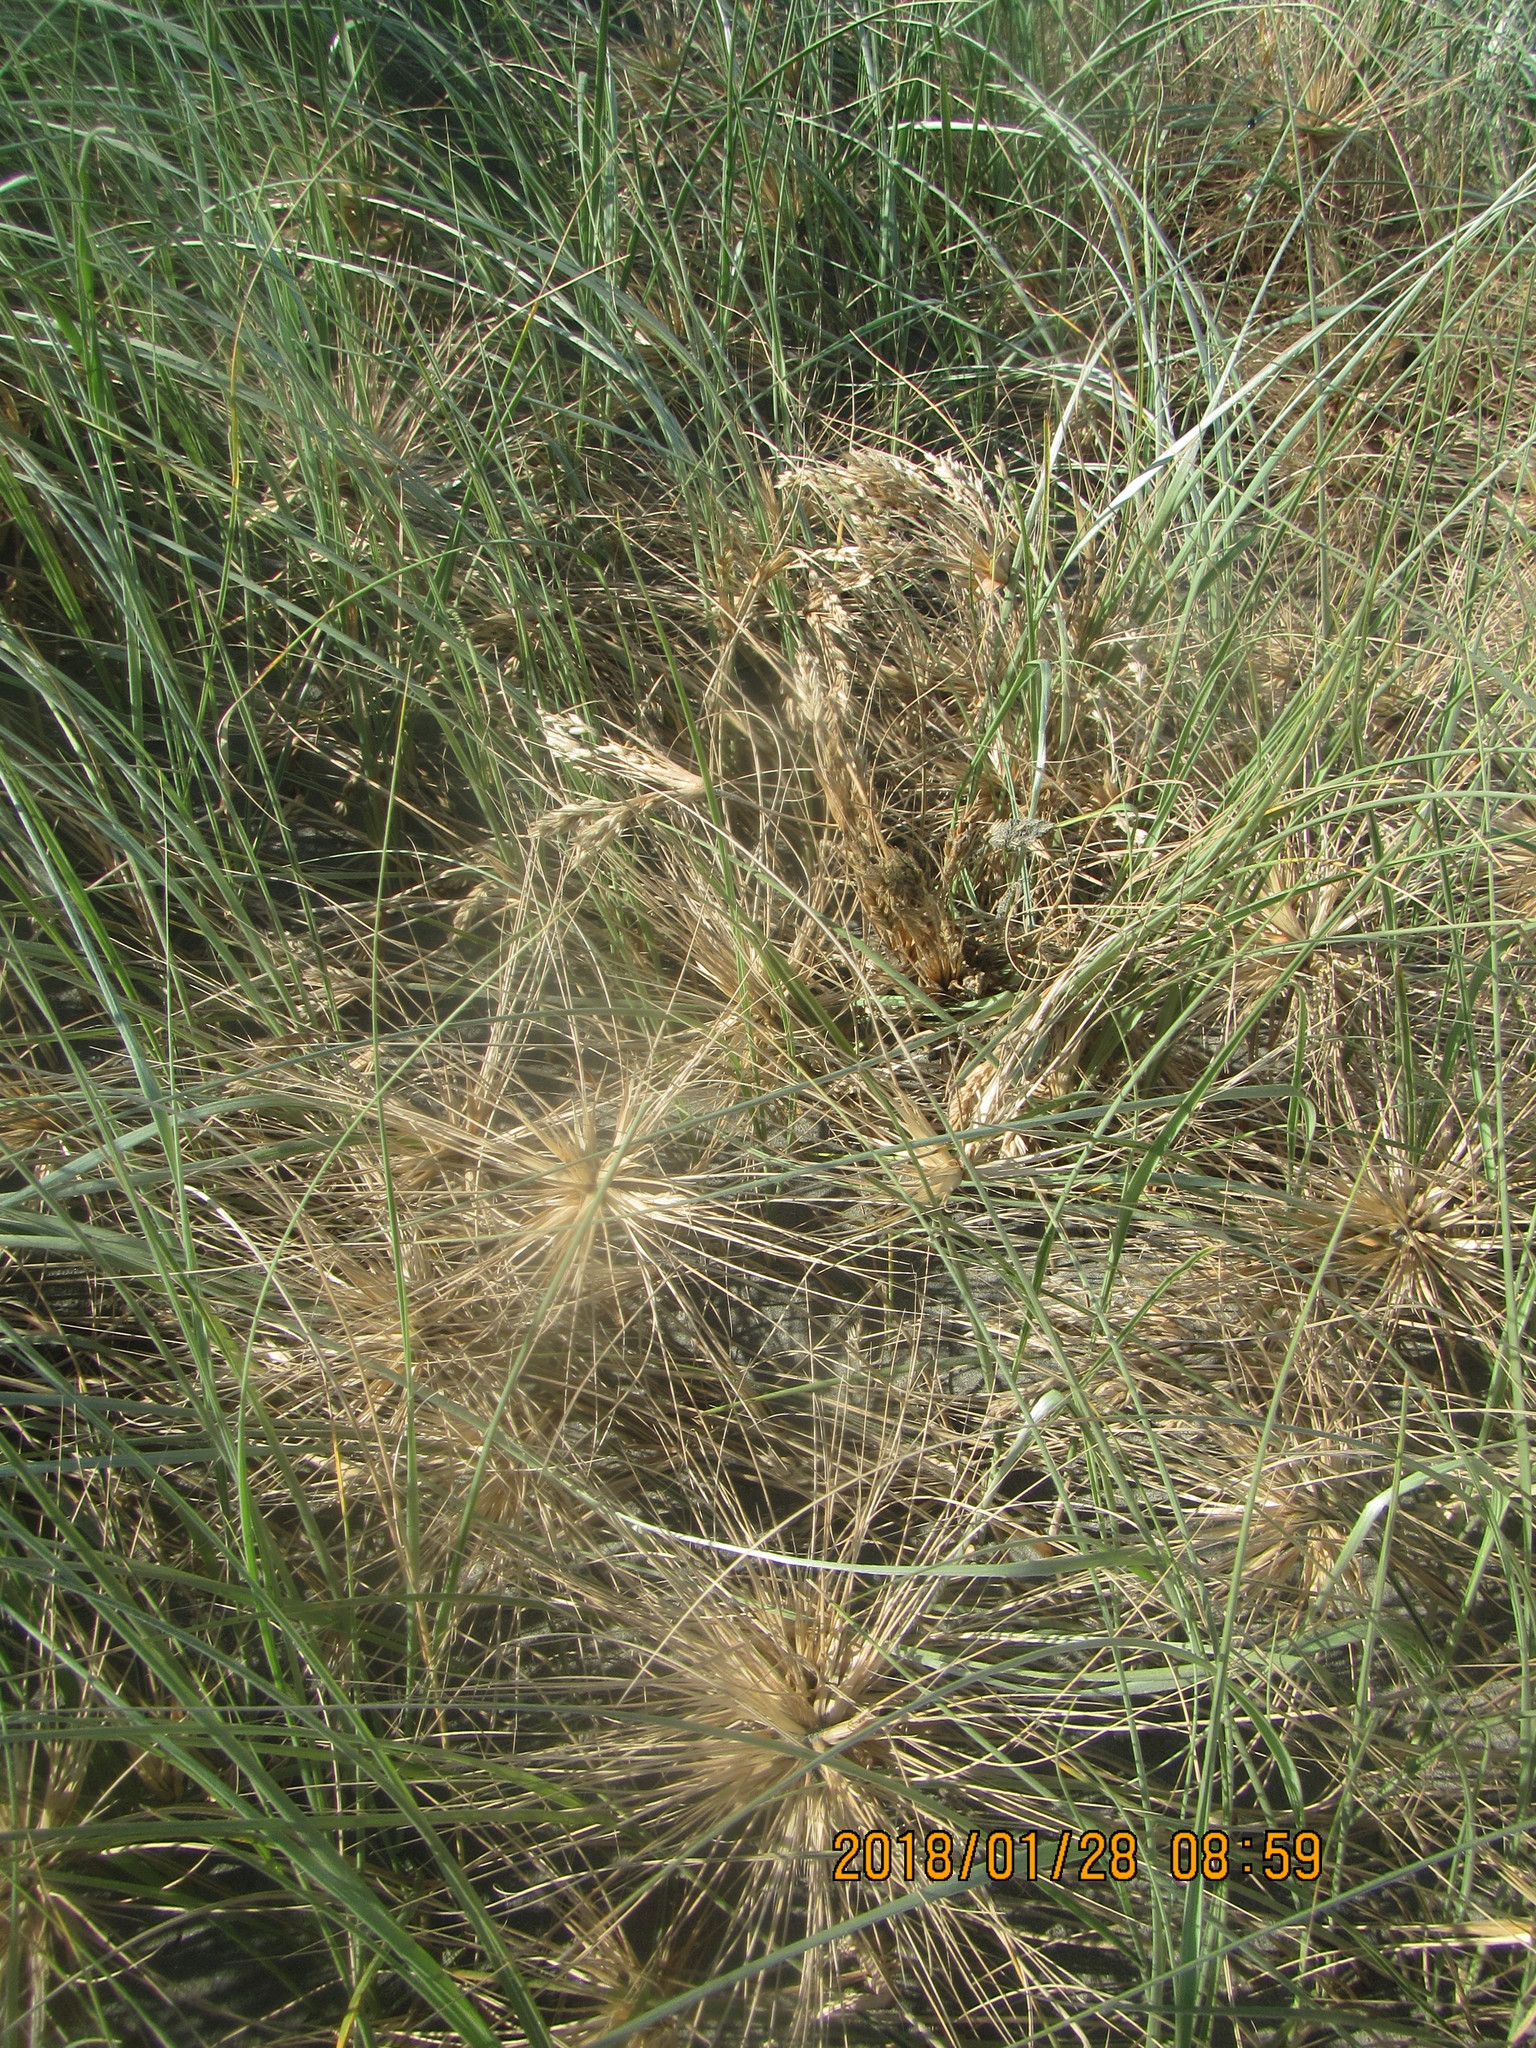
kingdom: Plantae
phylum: Tracheophyta
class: Liliopsida
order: Poales
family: Poaceae
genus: Spinifex
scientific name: Spinifex sericeus
